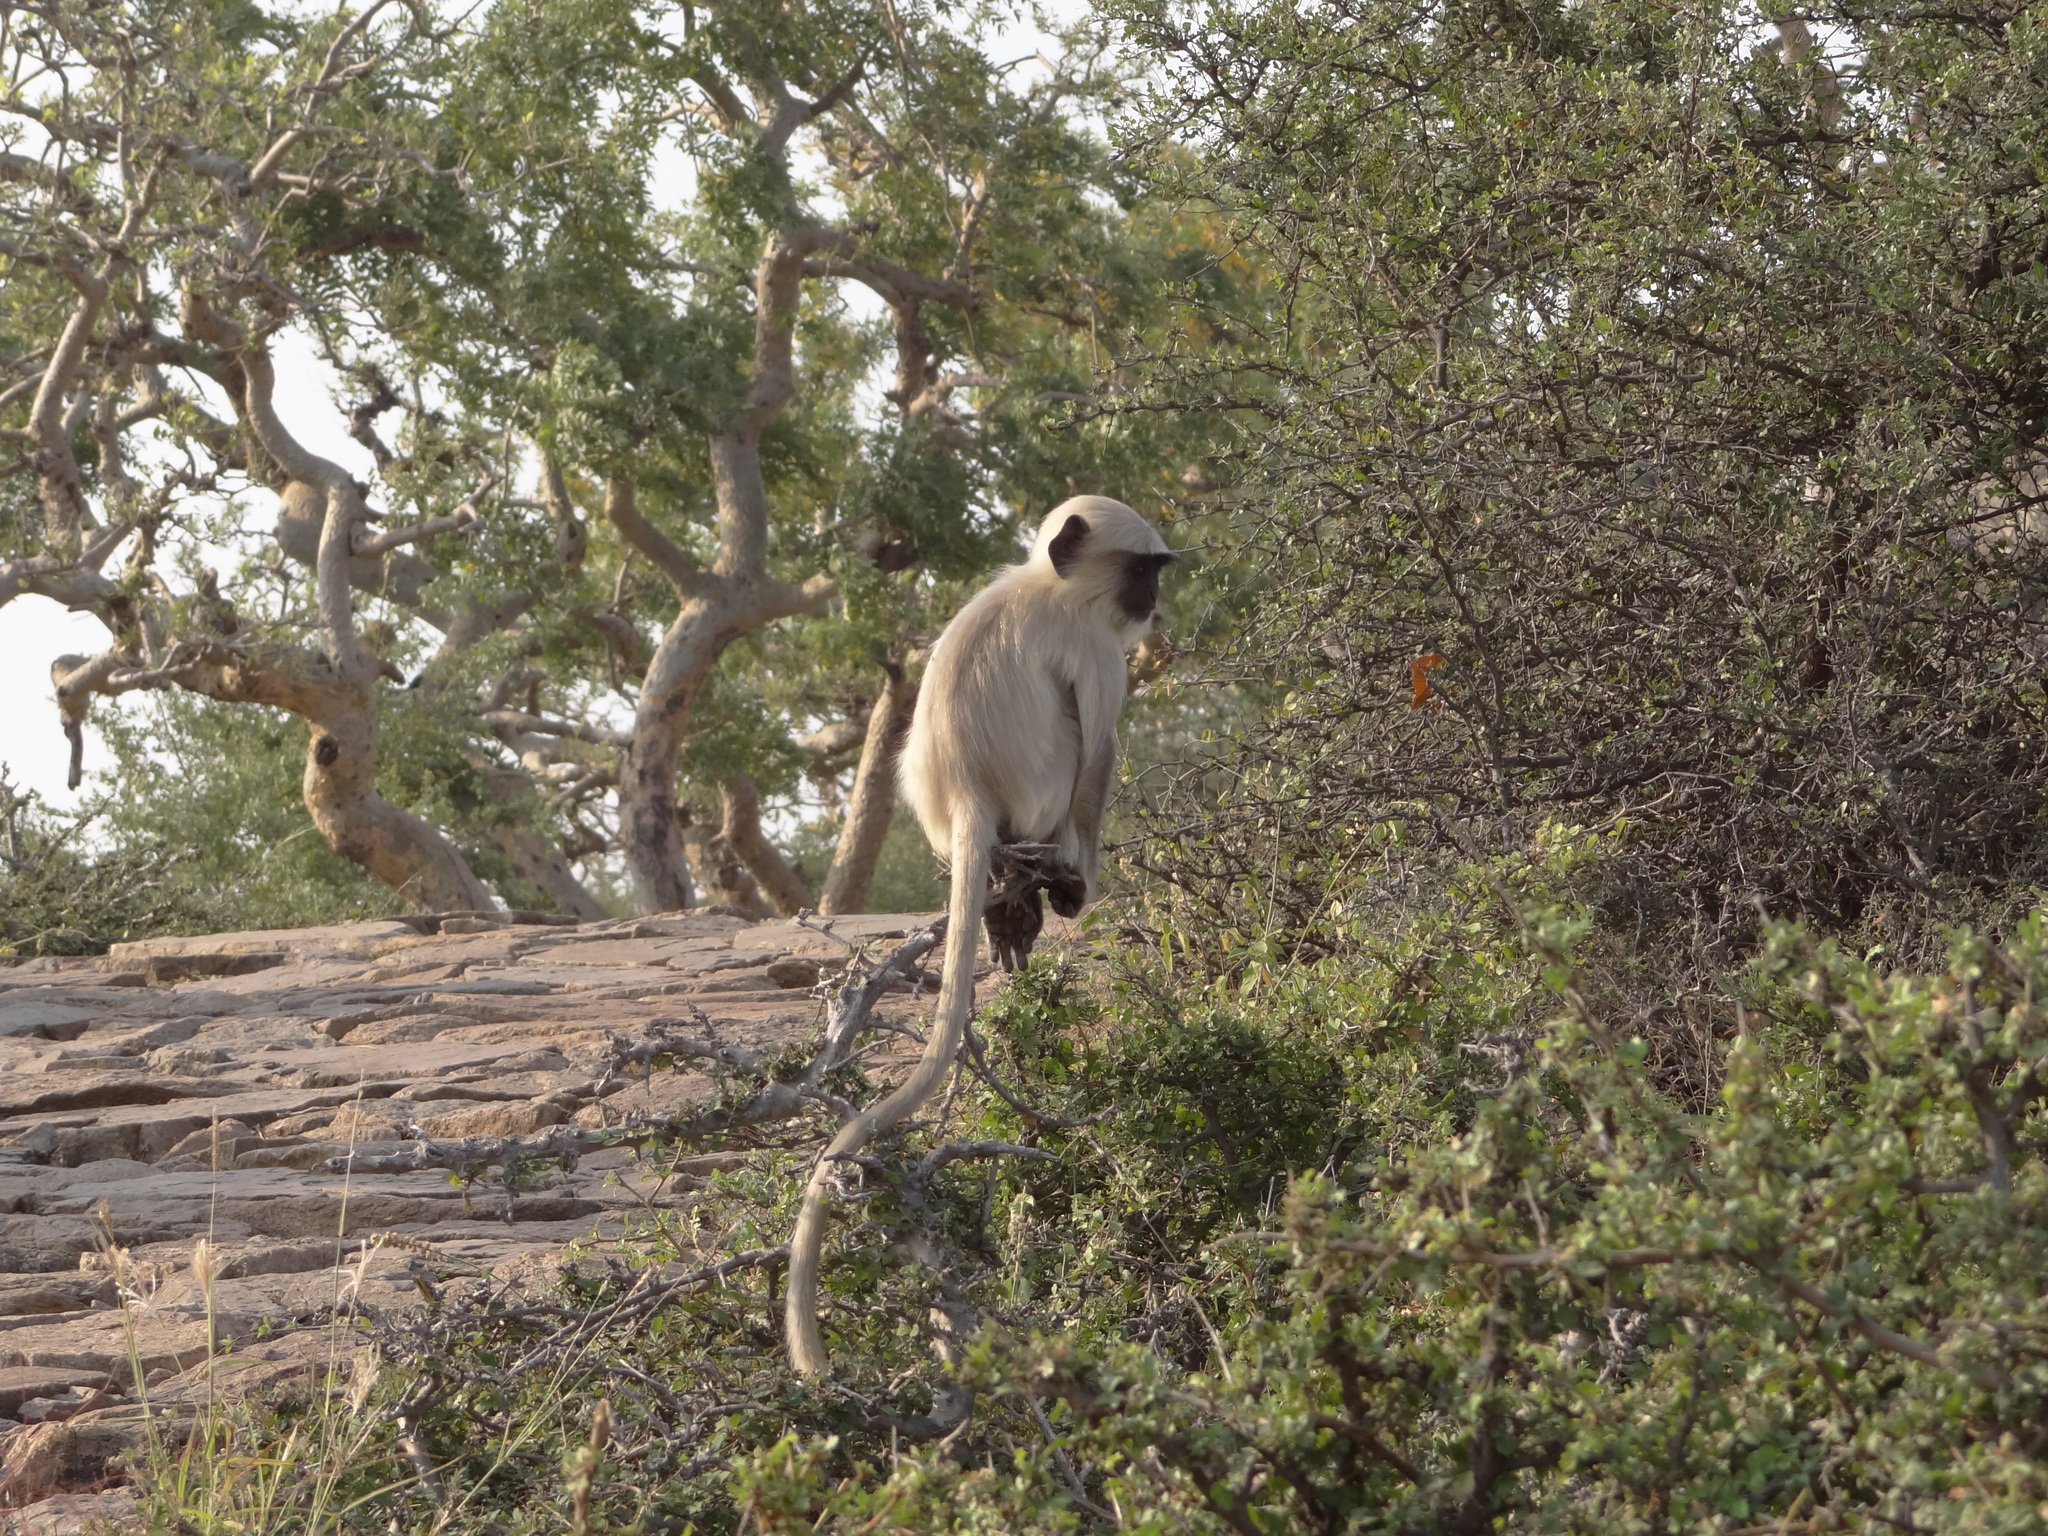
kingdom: Animalia
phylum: Chordata
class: Mammalia
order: Primates
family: Cercopithecidae
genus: Semnopithecus
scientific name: Semnopithecus entellus
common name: Northern plains gray langur
